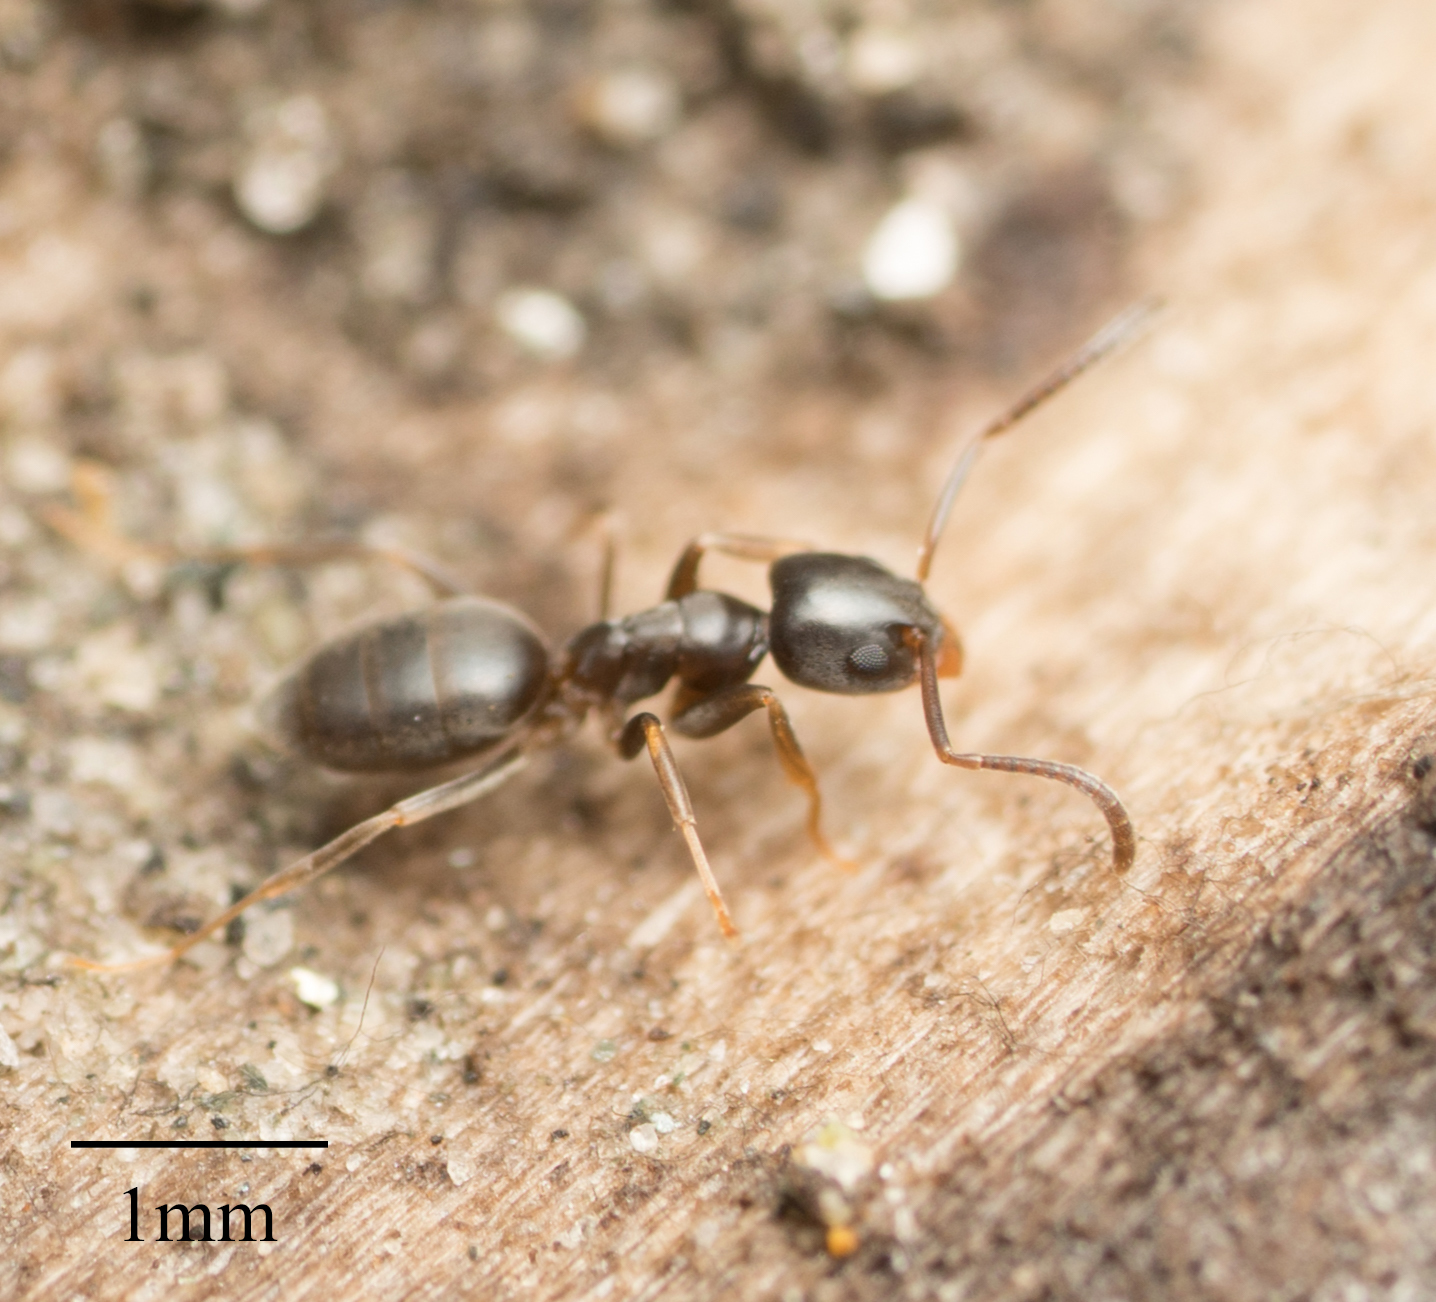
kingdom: Animalia
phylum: Arthropoda
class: Insecta
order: Hymenoptera
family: Formicidae
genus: Tapinoma
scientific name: Tapinoma sessile
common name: Odorous house ant
